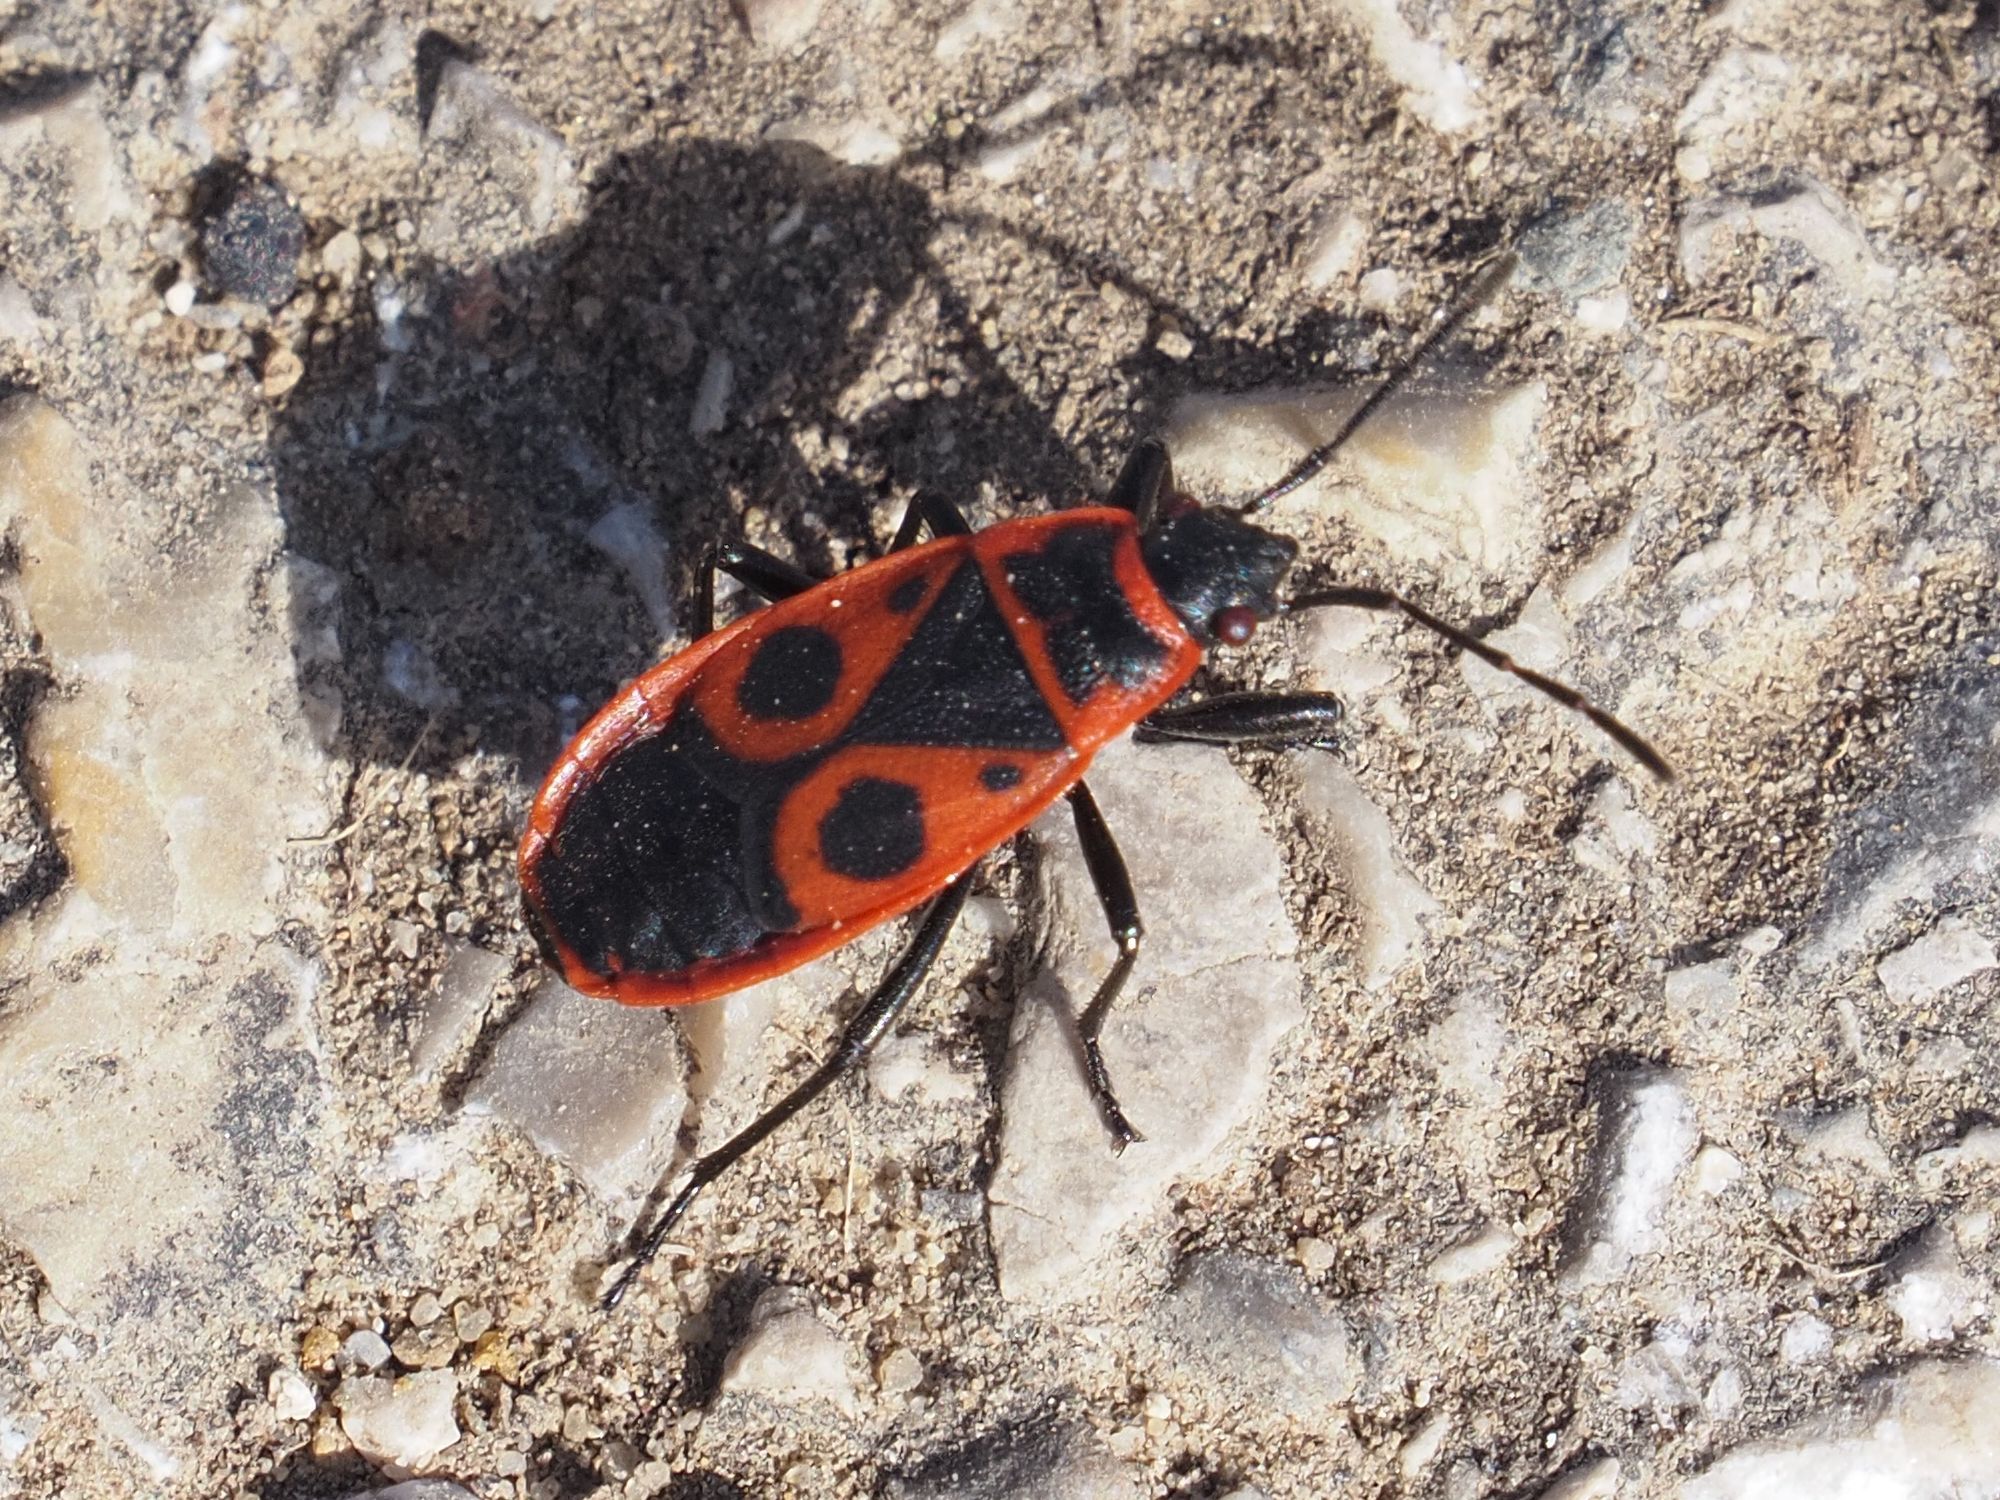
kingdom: Animalia
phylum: Arthropoda
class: Insecta
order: Hemiptera
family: Pyrrhocoridae
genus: Pyrrhocoris
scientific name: Pyrrhocoris apterus
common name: Firebug
